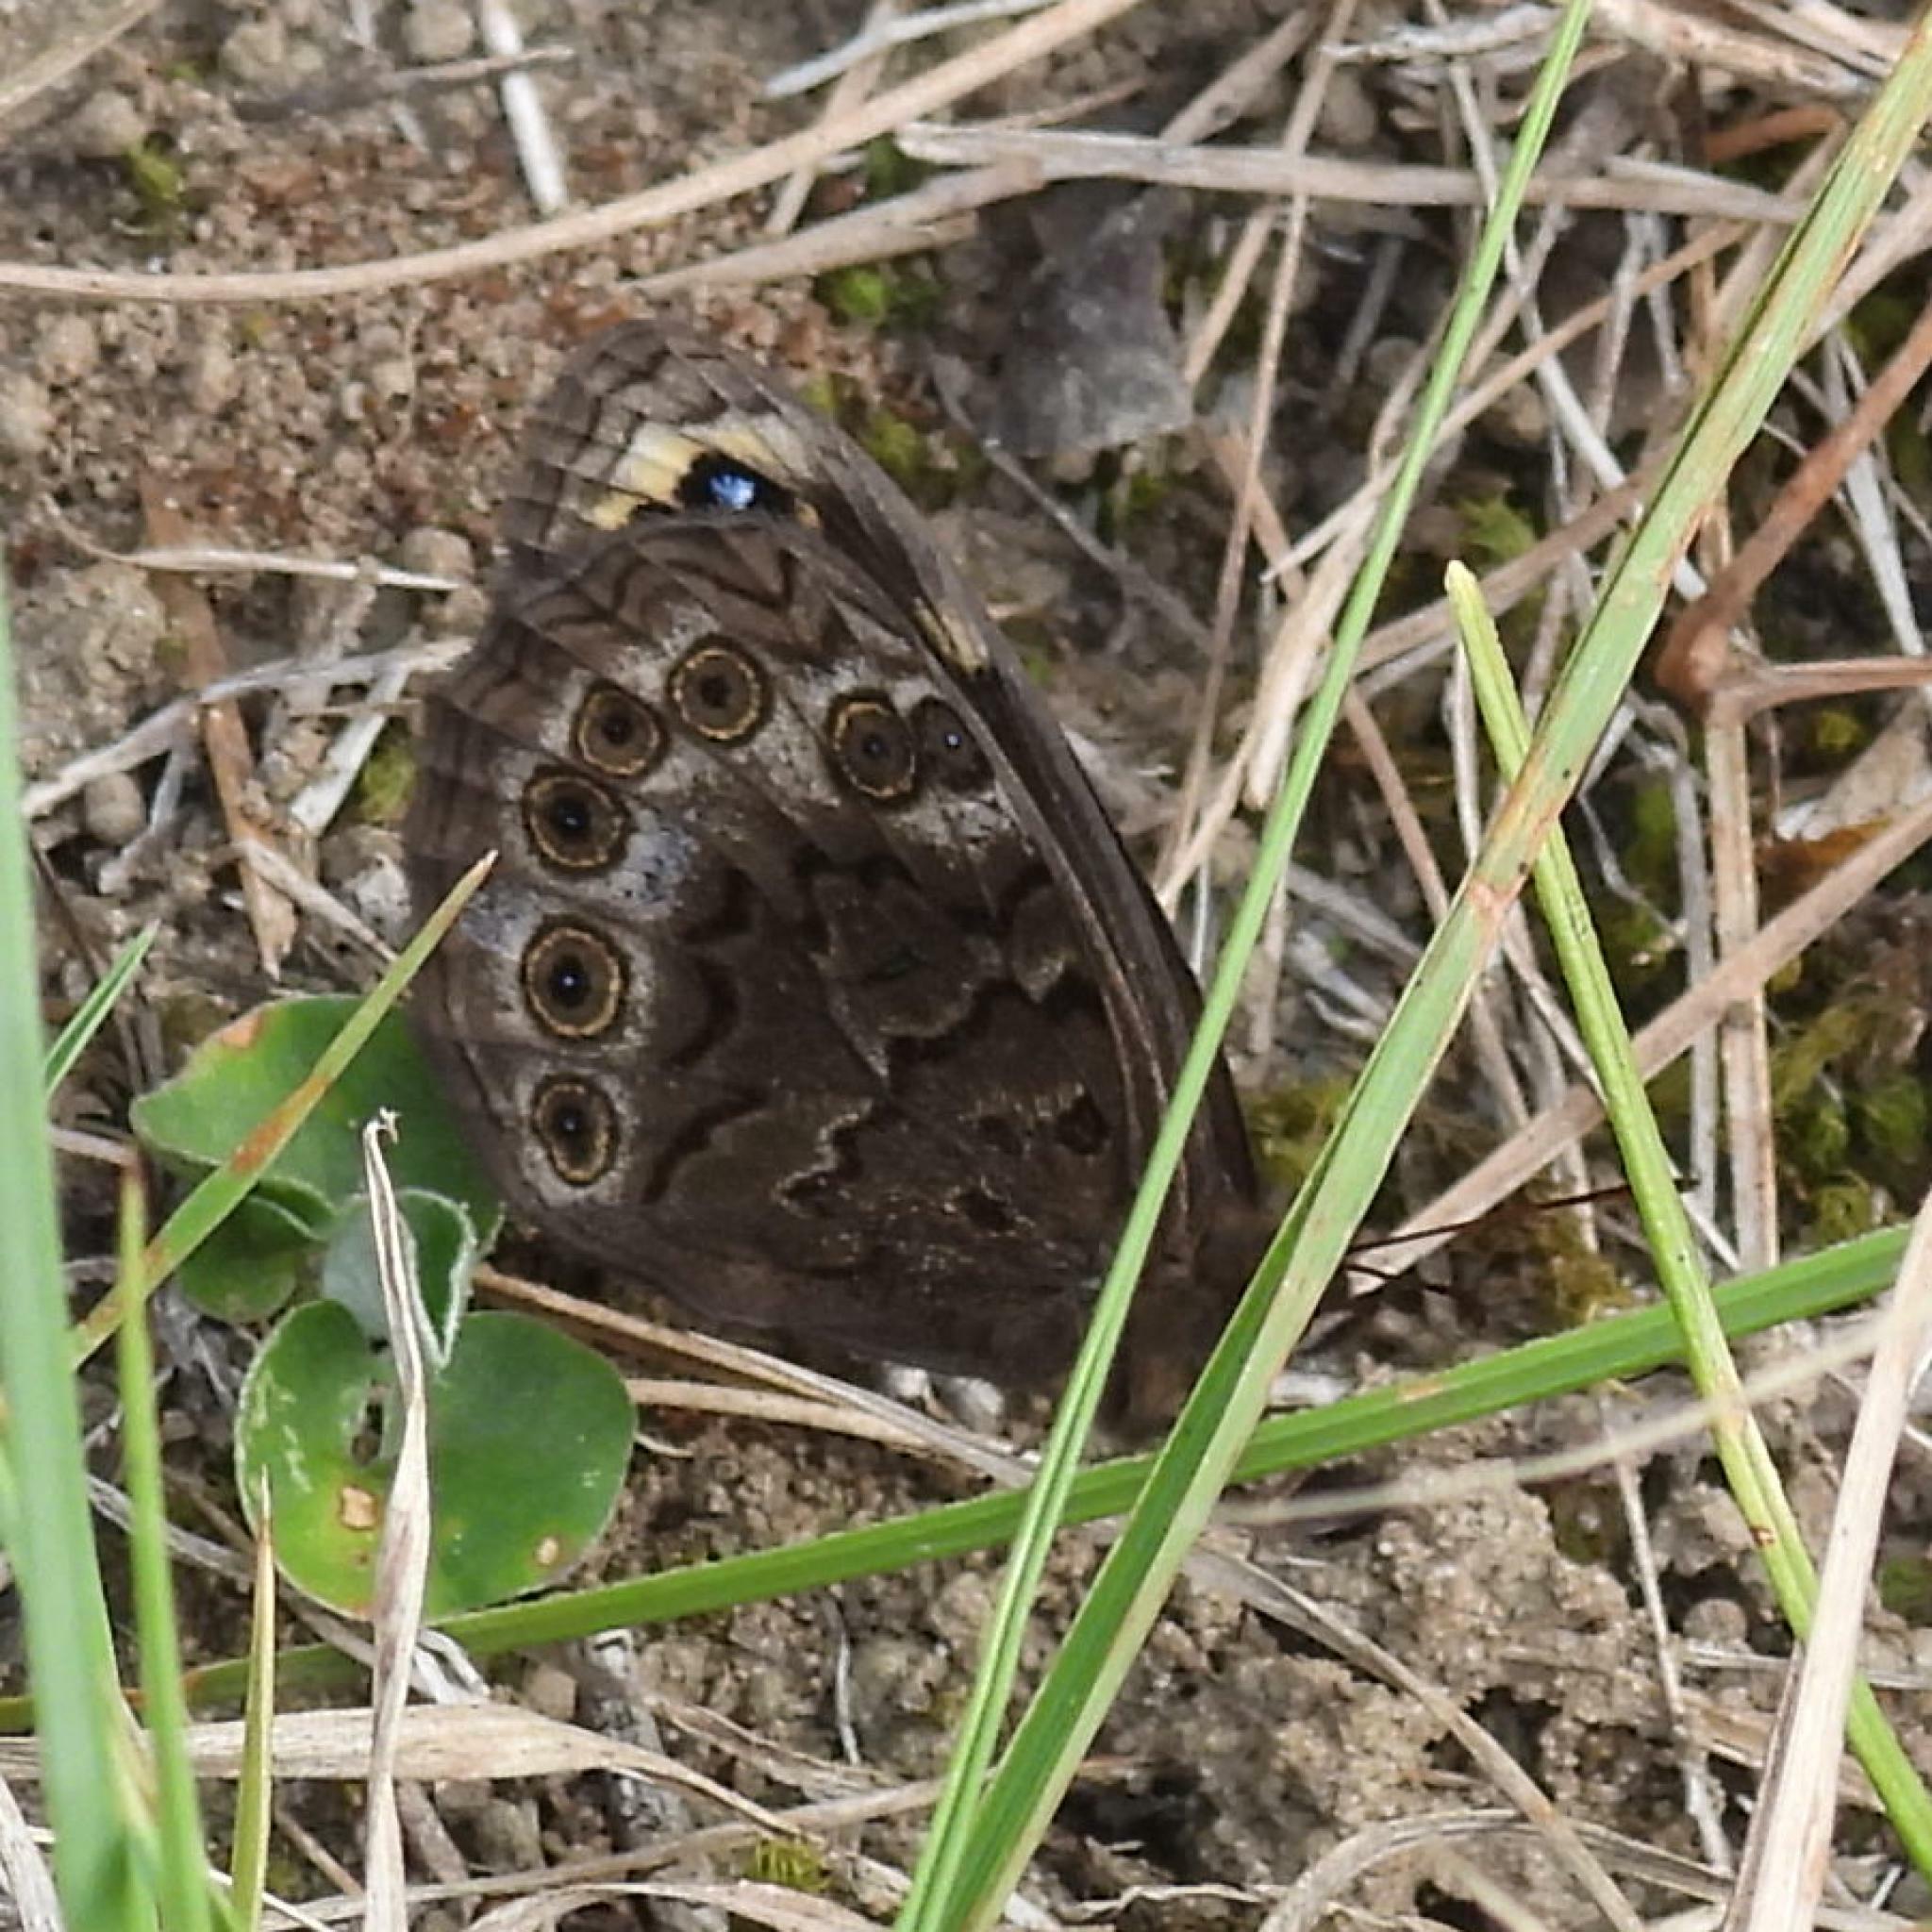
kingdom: Animalia
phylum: Arthropoda
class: Insecta
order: Lepidoptera
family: Nymphalidae
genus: Dira
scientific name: Dira clytus
